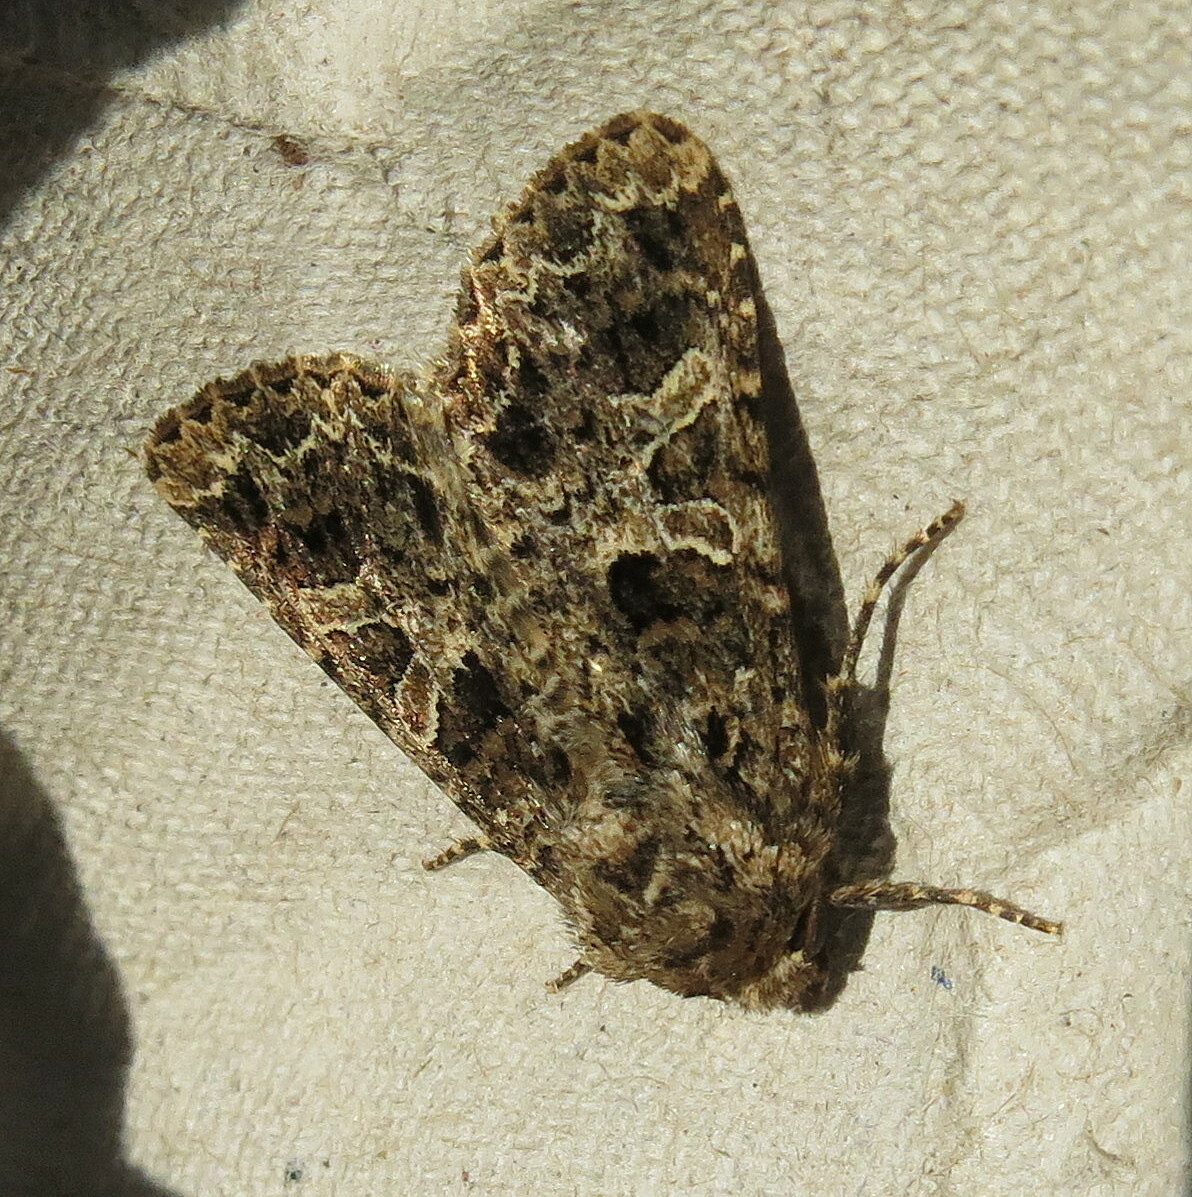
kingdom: Animalia
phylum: Arthropoda
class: Insecta
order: Lepidoptera
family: Noctuidae
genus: Hadena
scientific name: Hadena bicruris
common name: Lychnis
